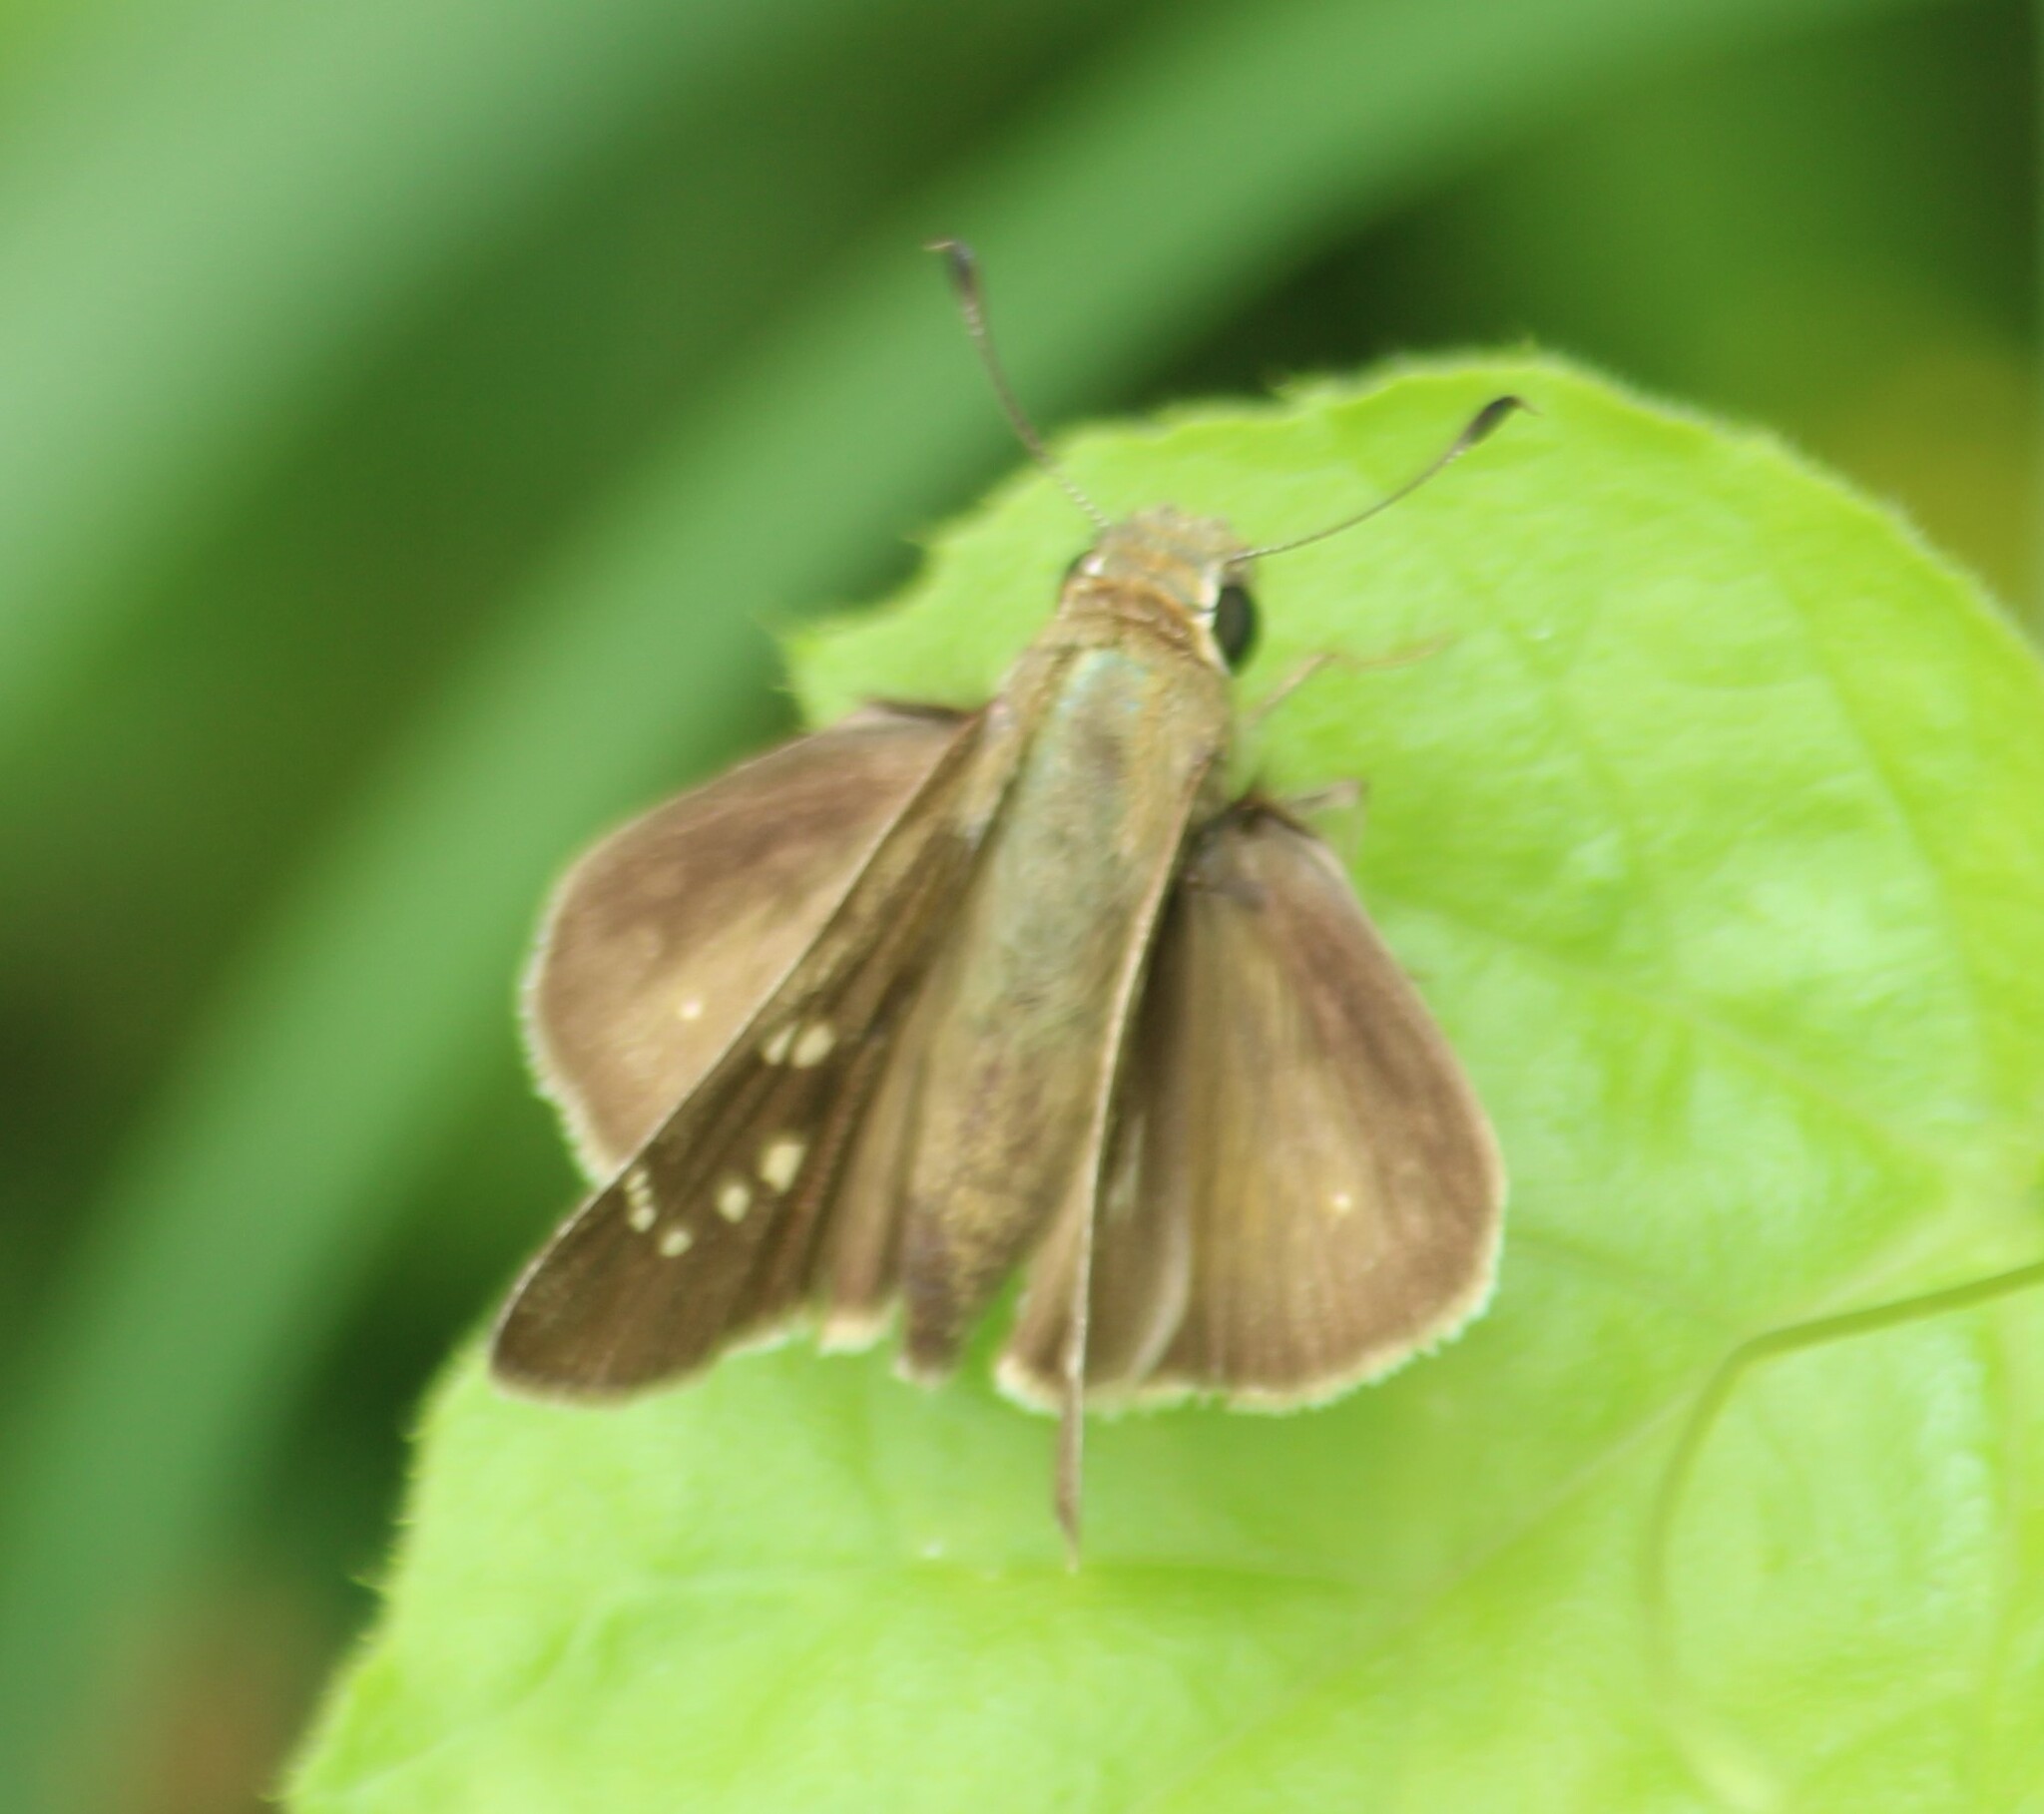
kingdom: Animalia
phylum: Arthropoda
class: Insecta
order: Lepidoptera
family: Hesperiidae
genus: Pelopidas
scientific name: Pelopidas mathias
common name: Black-branded swift
